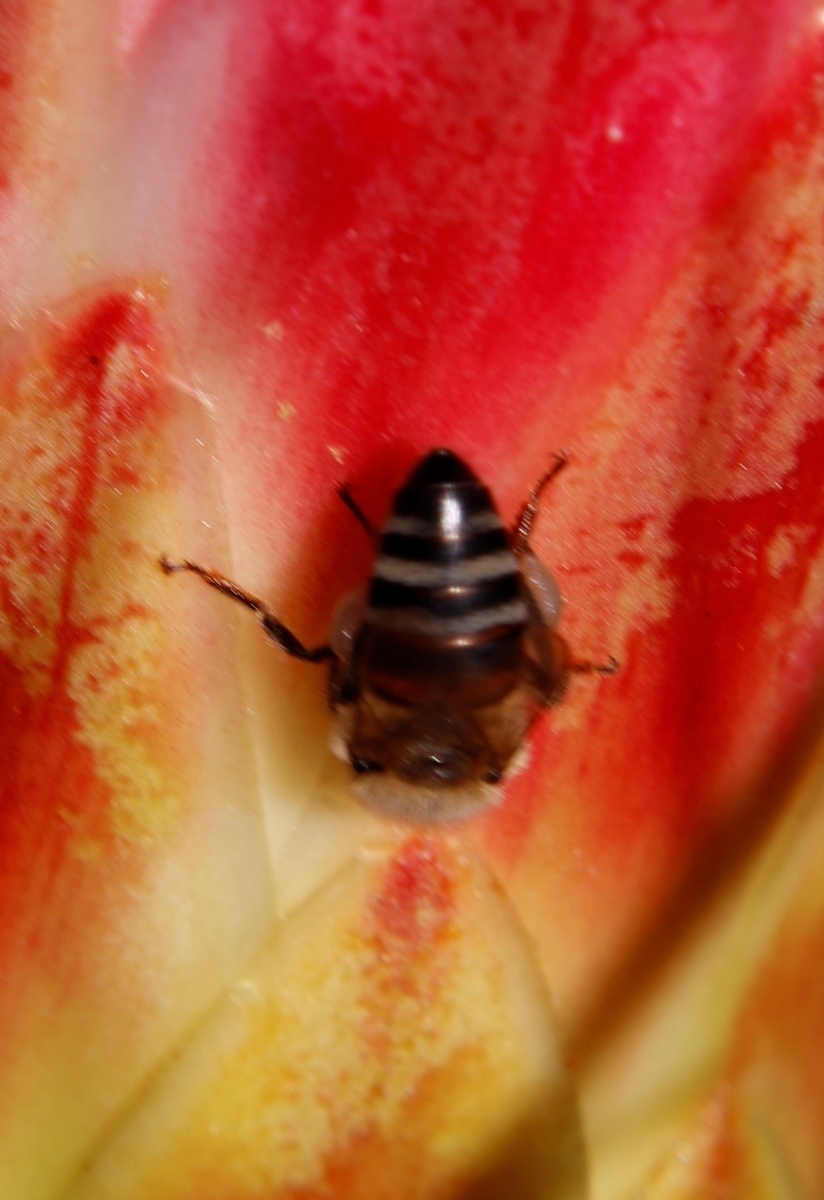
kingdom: Animalia
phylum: Arthropoda
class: Insecta
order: Hymenoptera
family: Apidae
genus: Apis
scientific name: Apis mellifera
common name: Honey bee
